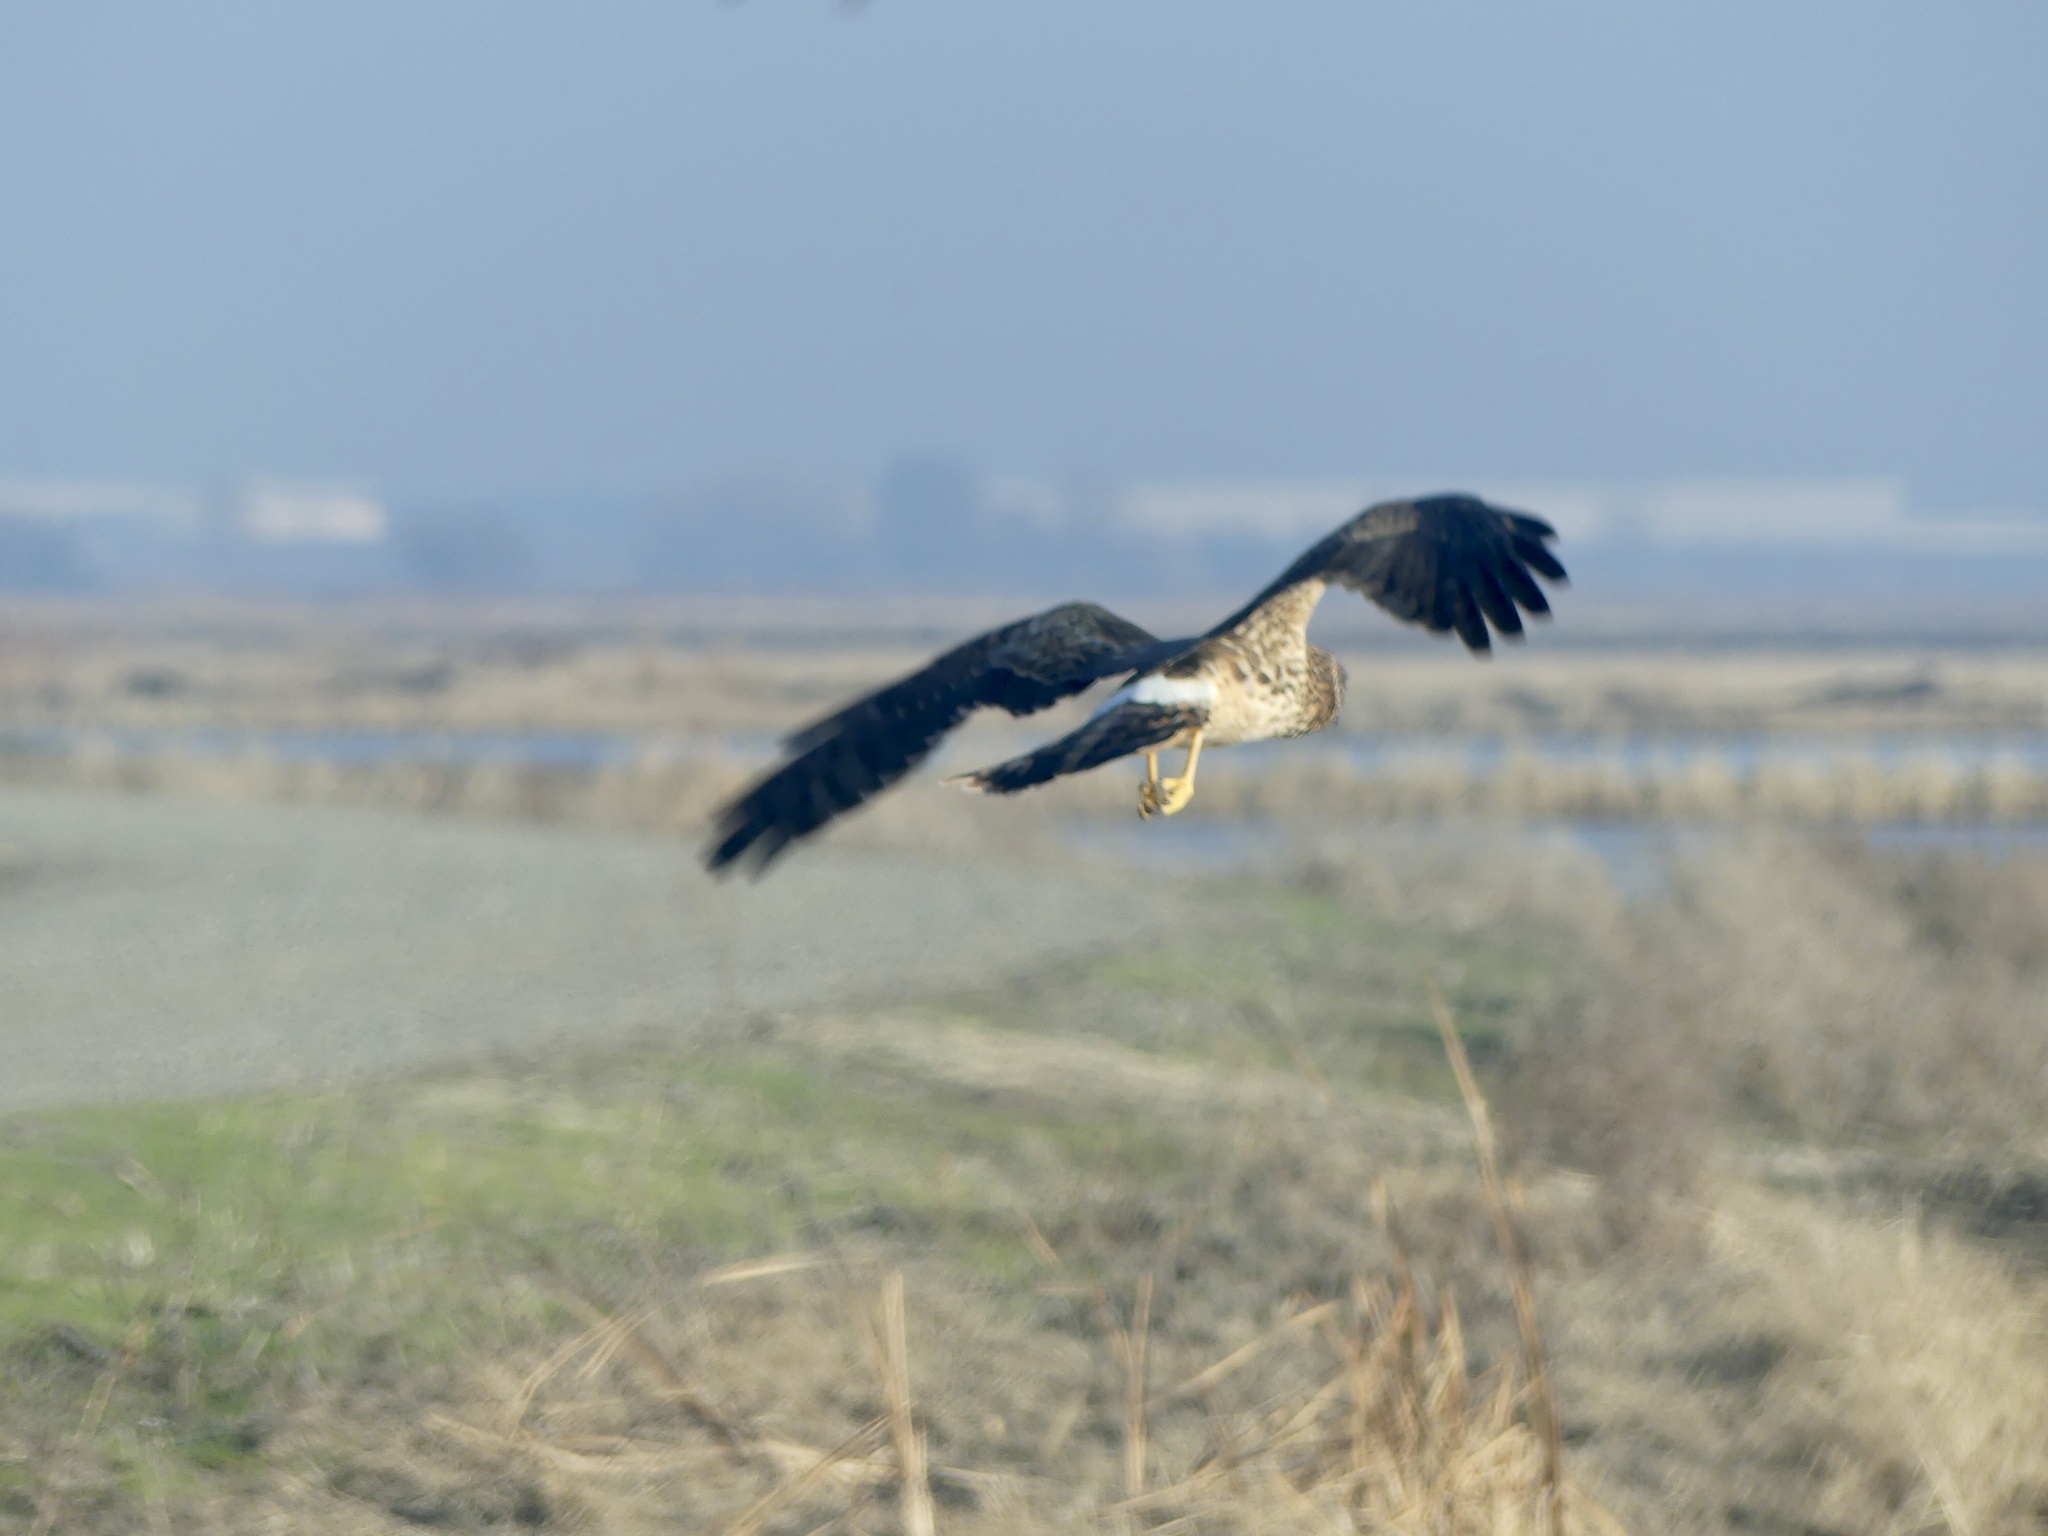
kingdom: Animalia
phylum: Chordata
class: Aves
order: Accipitriformes
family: Accipitridae
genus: Circus
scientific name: Circus cyaneus
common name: Hen harrier
